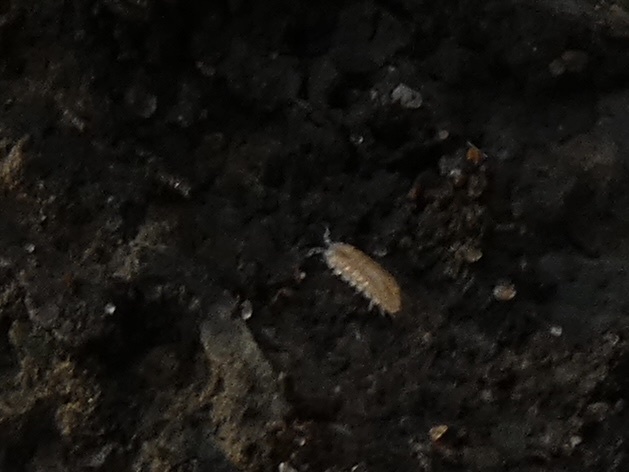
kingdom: Animalia
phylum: Arthropoda
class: Malacostraca
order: Isopoda
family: Trichoniscidae
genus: Trichoniscus
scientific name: Trichoniscus pygmaeus
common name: Isopod
